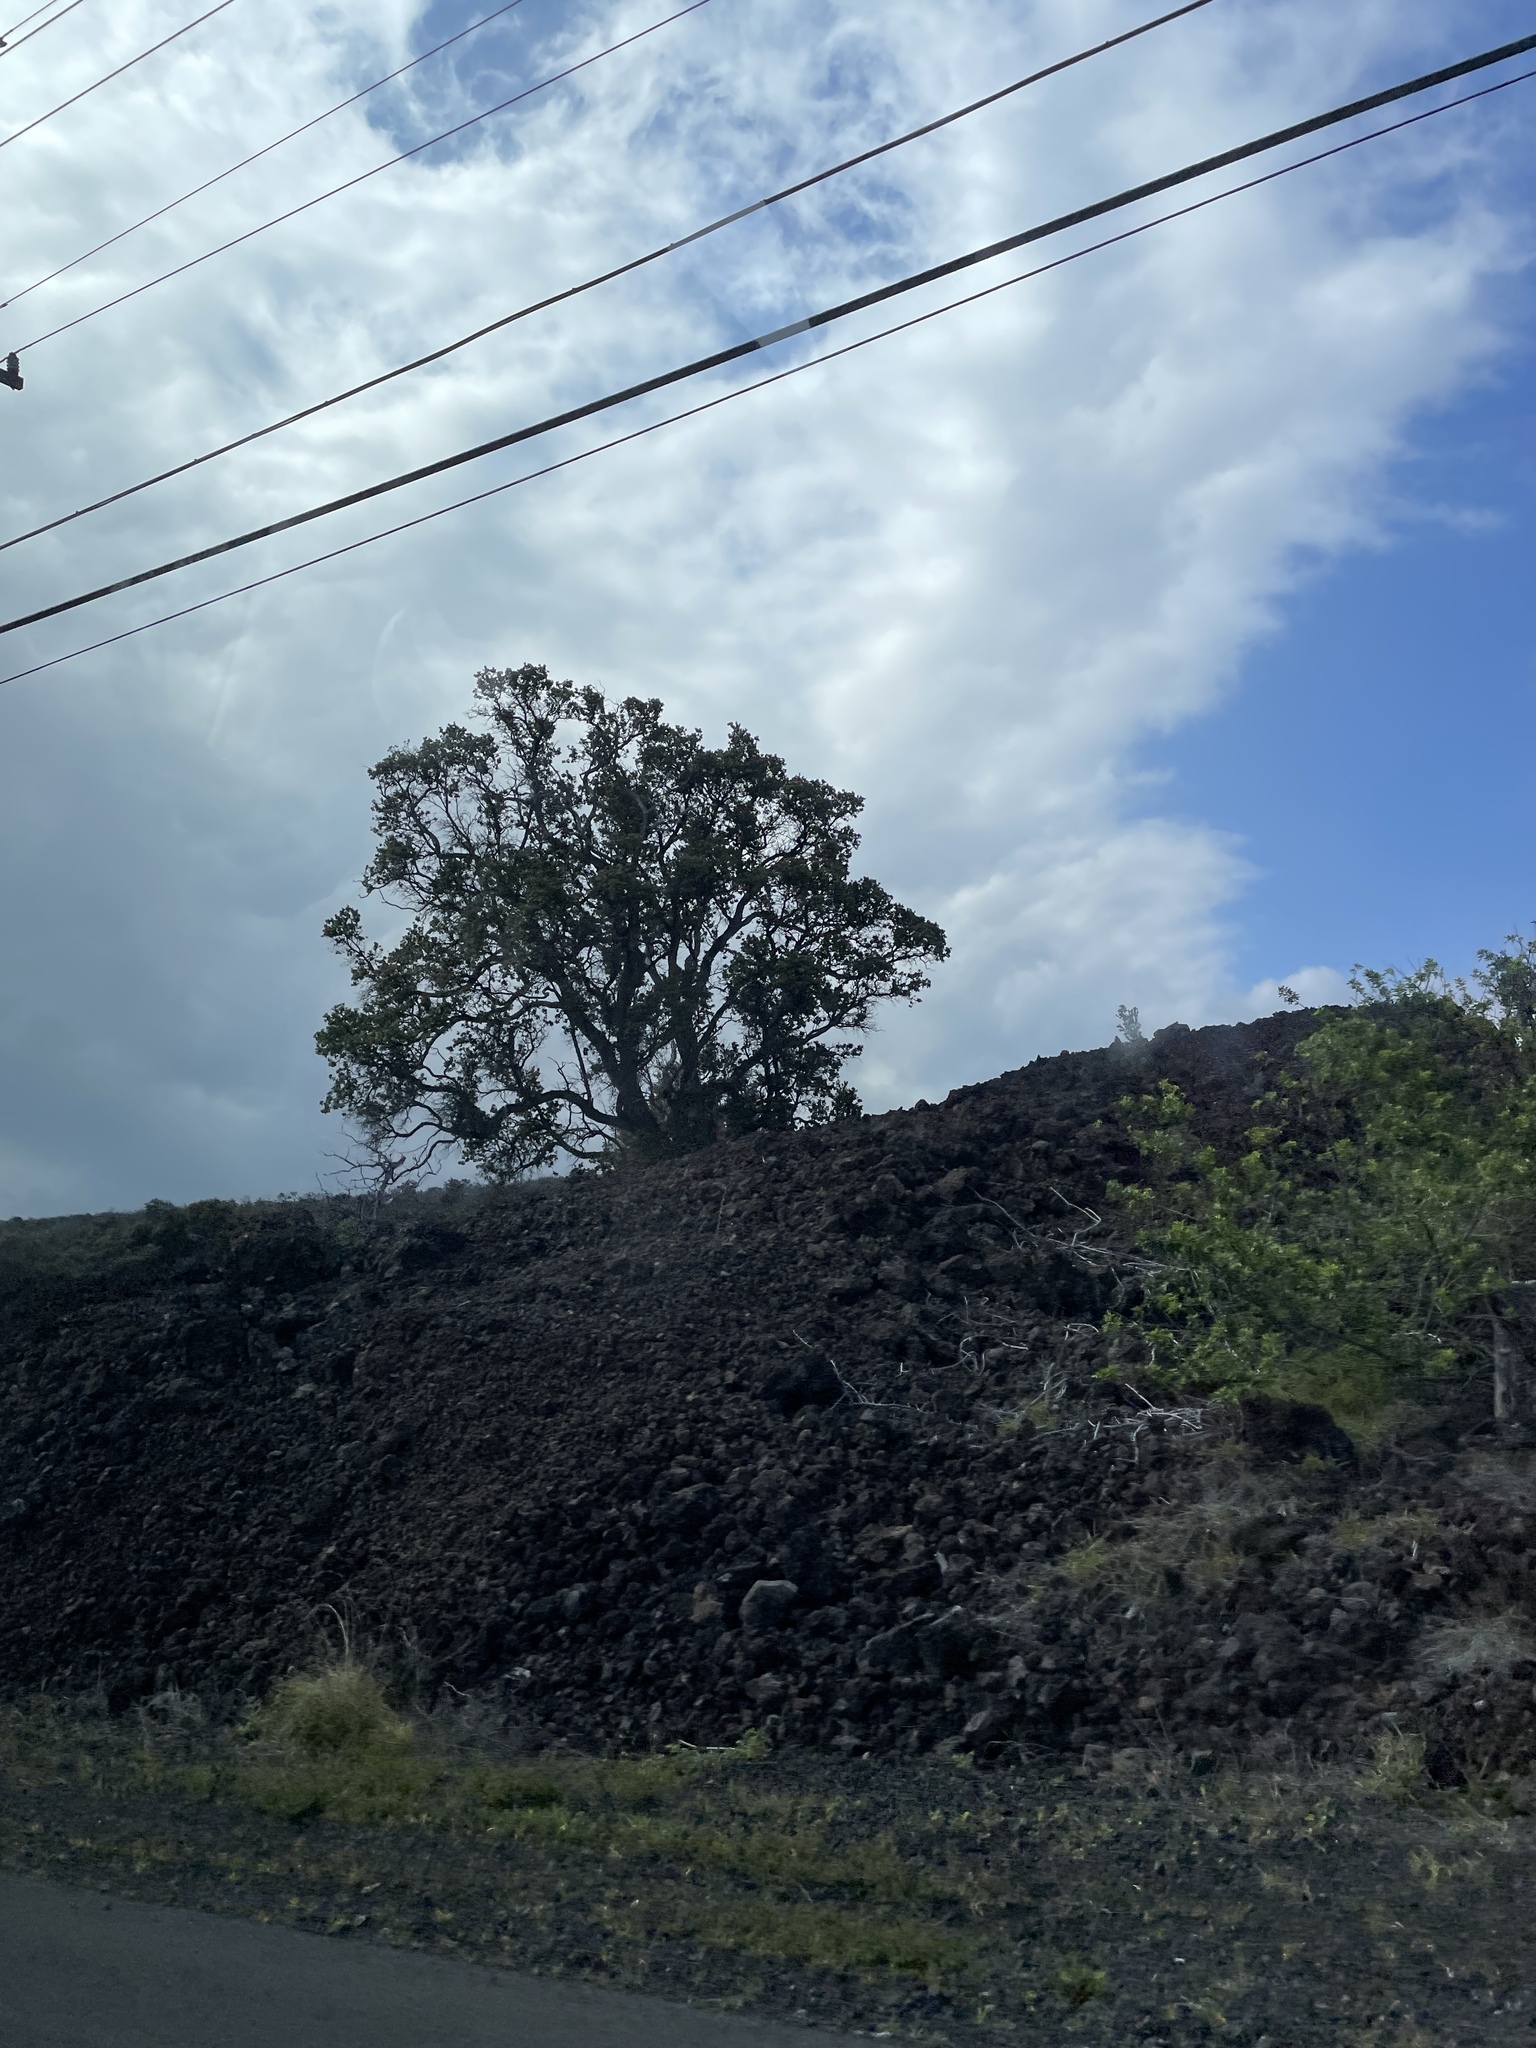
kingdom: Plantae
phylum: Tracheophyta
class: Magnoliopsida
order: Myrtales
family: Myrtaceae
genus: Metrosideros
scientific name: Metrosideros polymorpha
